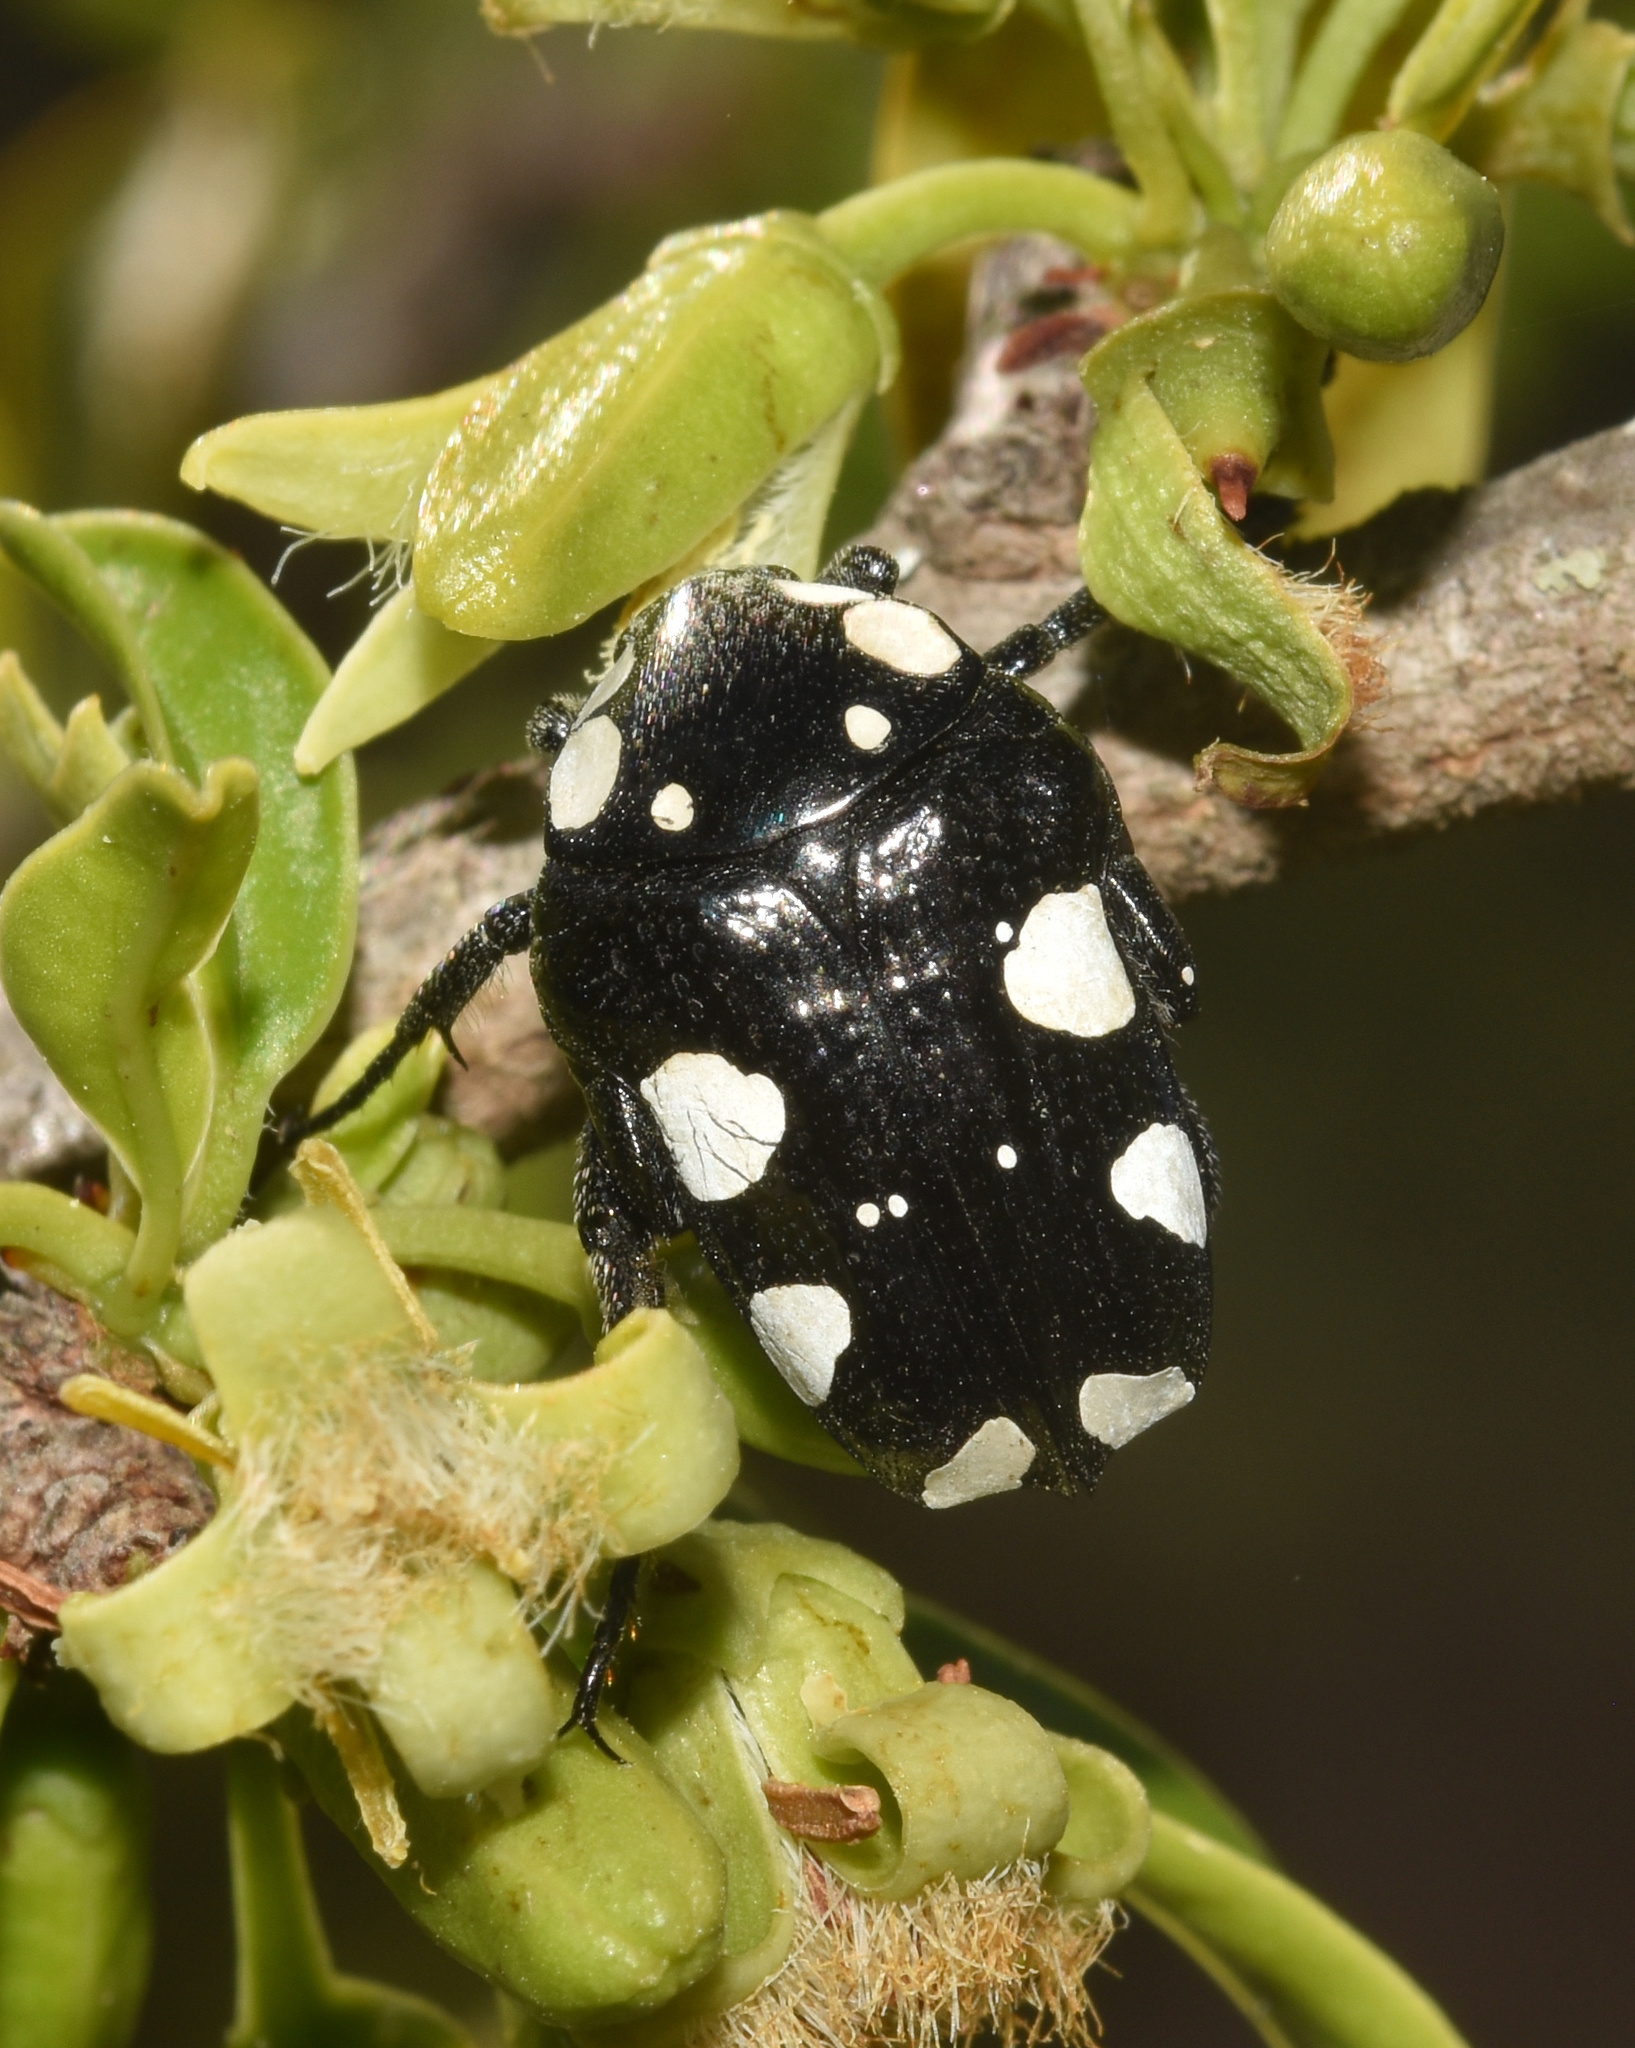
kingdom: Animalia
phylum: Arthropoda
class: Insecta
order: Coleoptera
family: Scarabaeidae
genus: Mausoleopsis
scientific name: Mausoleopsis amabilis
